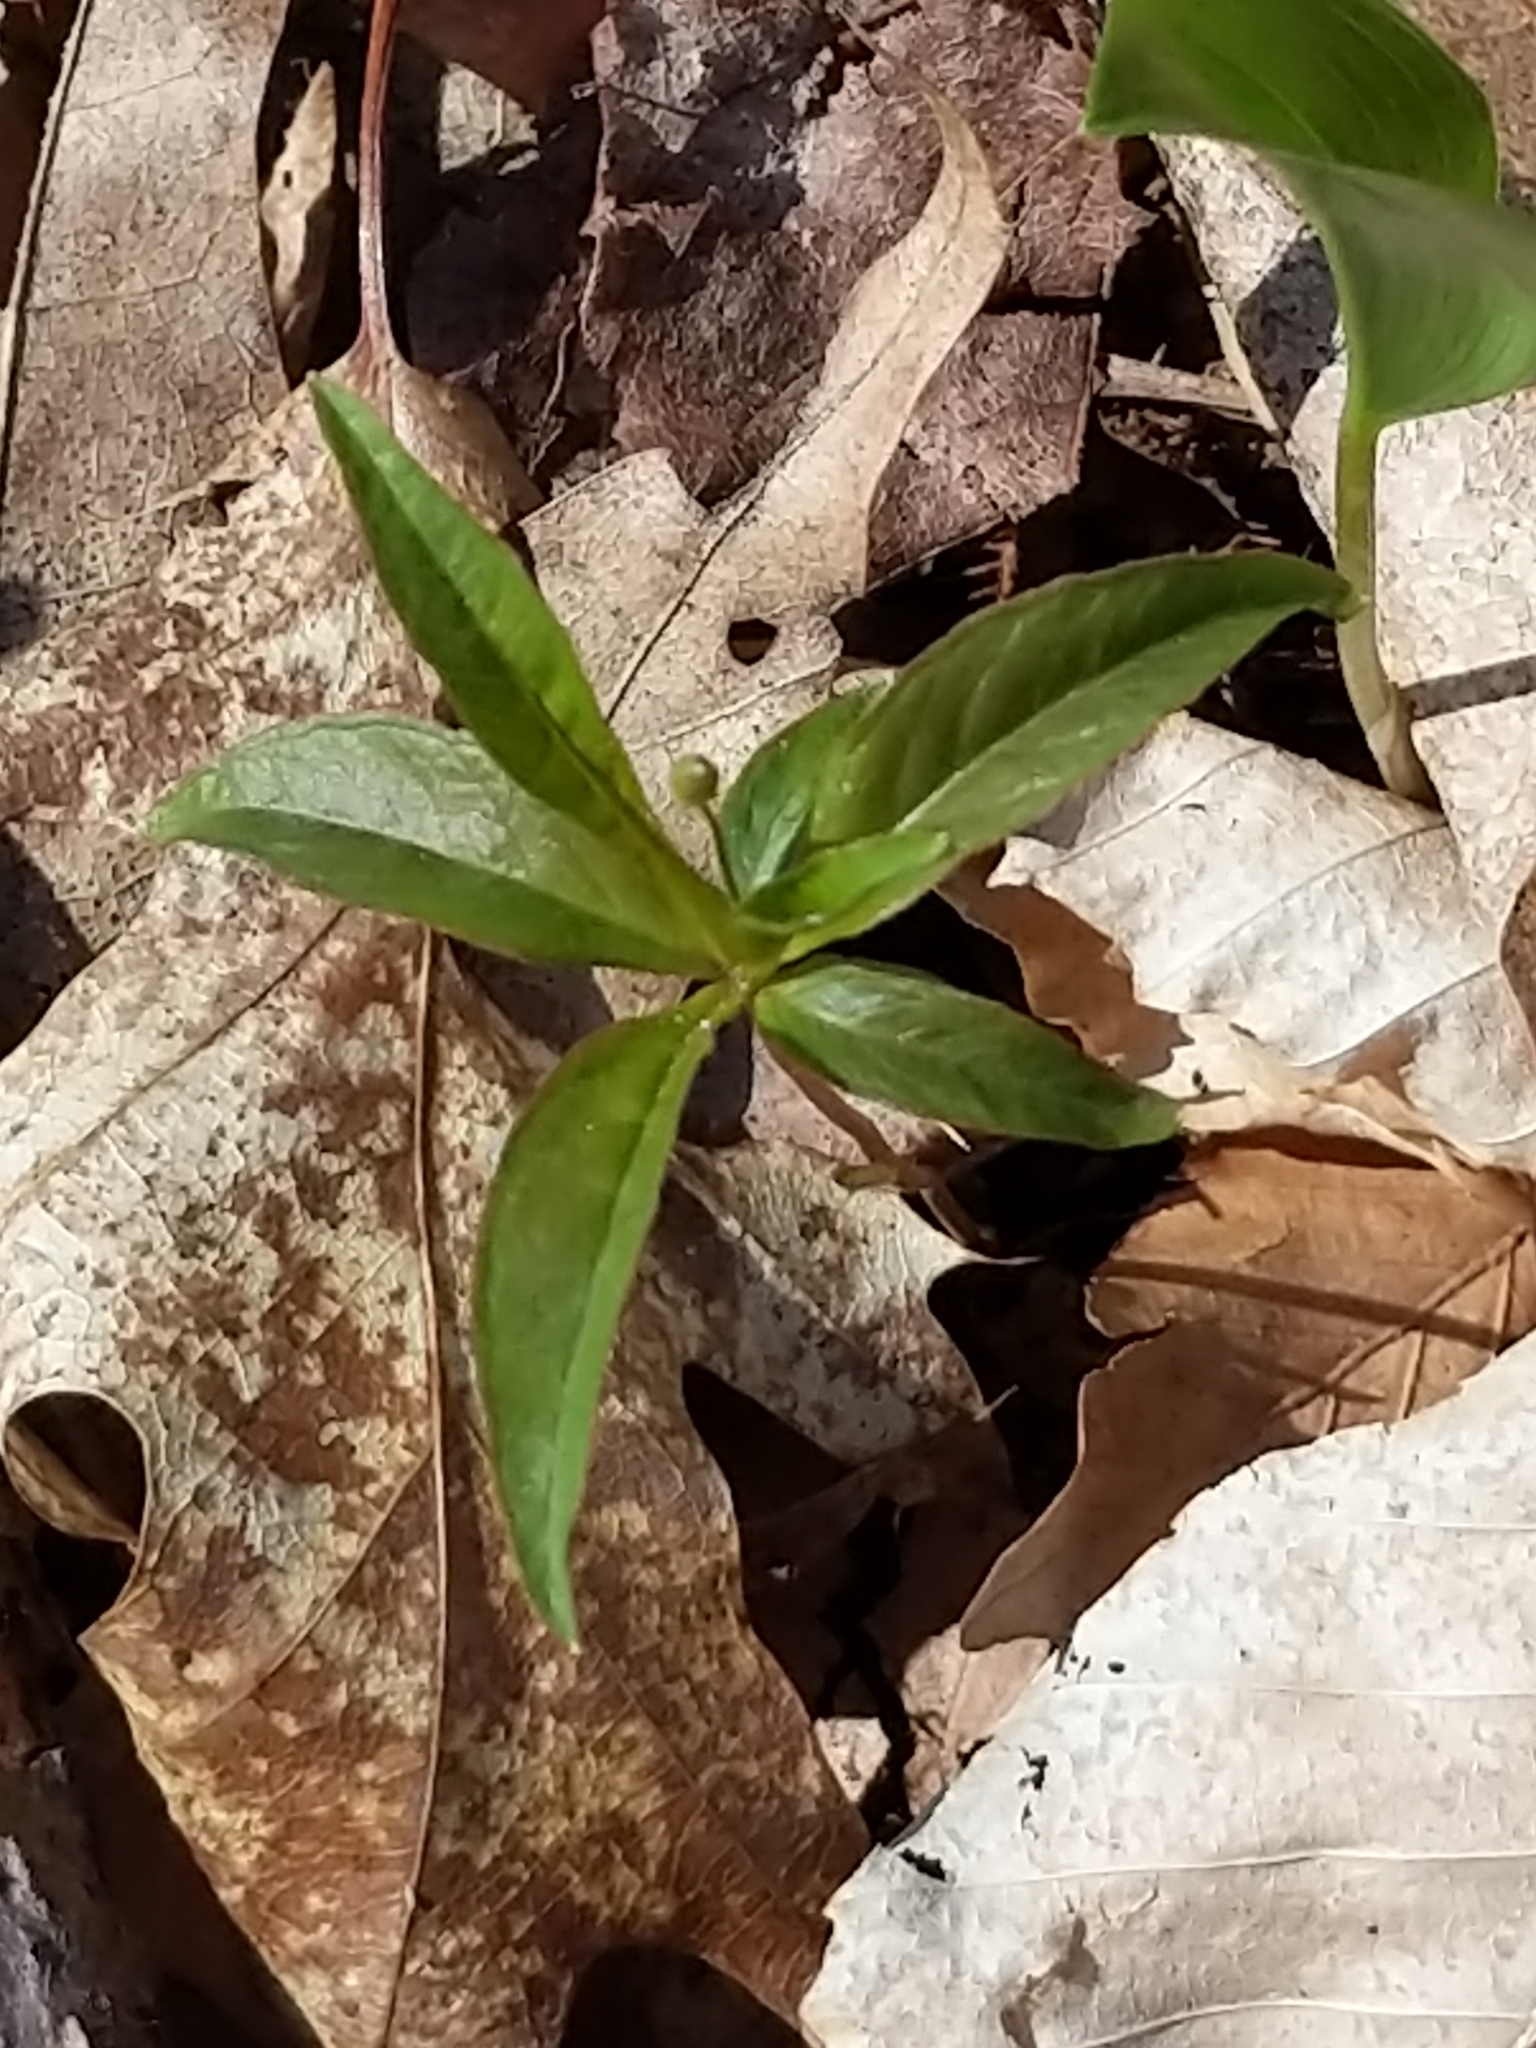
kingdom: Plantae
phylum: Tracheophyta
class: Magnoliopsida
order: Ericales
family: Primulaceae
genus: Lysimachia
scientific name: Lysimachia borealis
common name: American starflower
